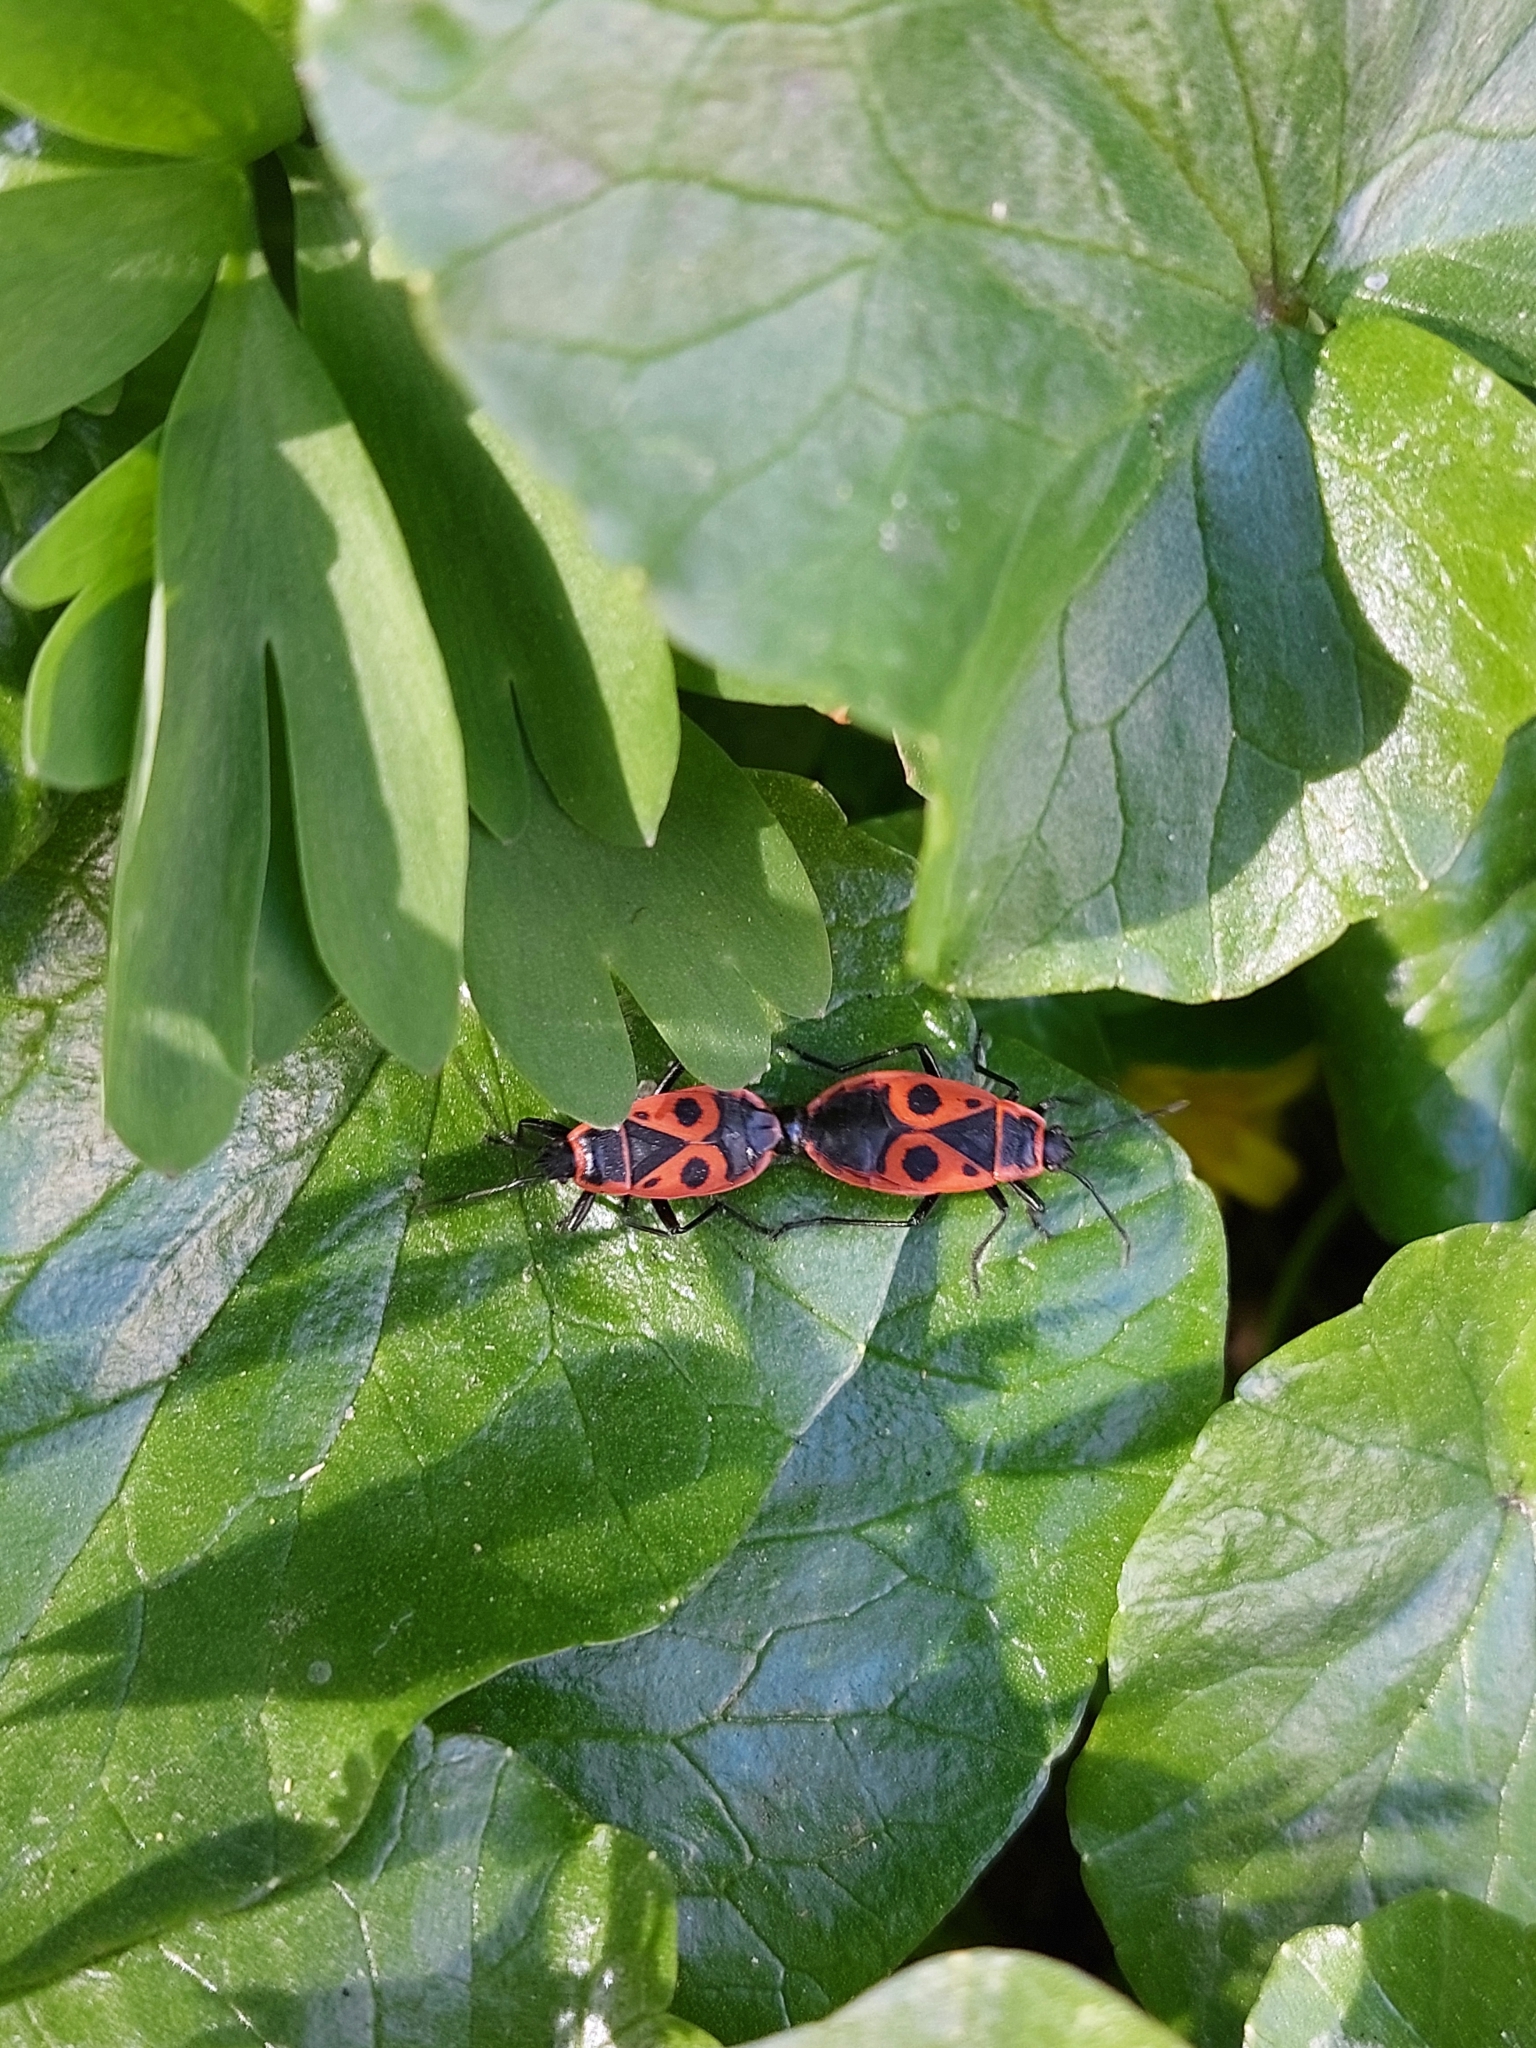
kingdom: Animalia
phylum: Arthropoda
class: Insecta
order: Hemiptera
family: Pyrrhocoridae
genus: Pyrrhocoris
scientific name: Pyrrhocoris apterus
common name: Firebug
